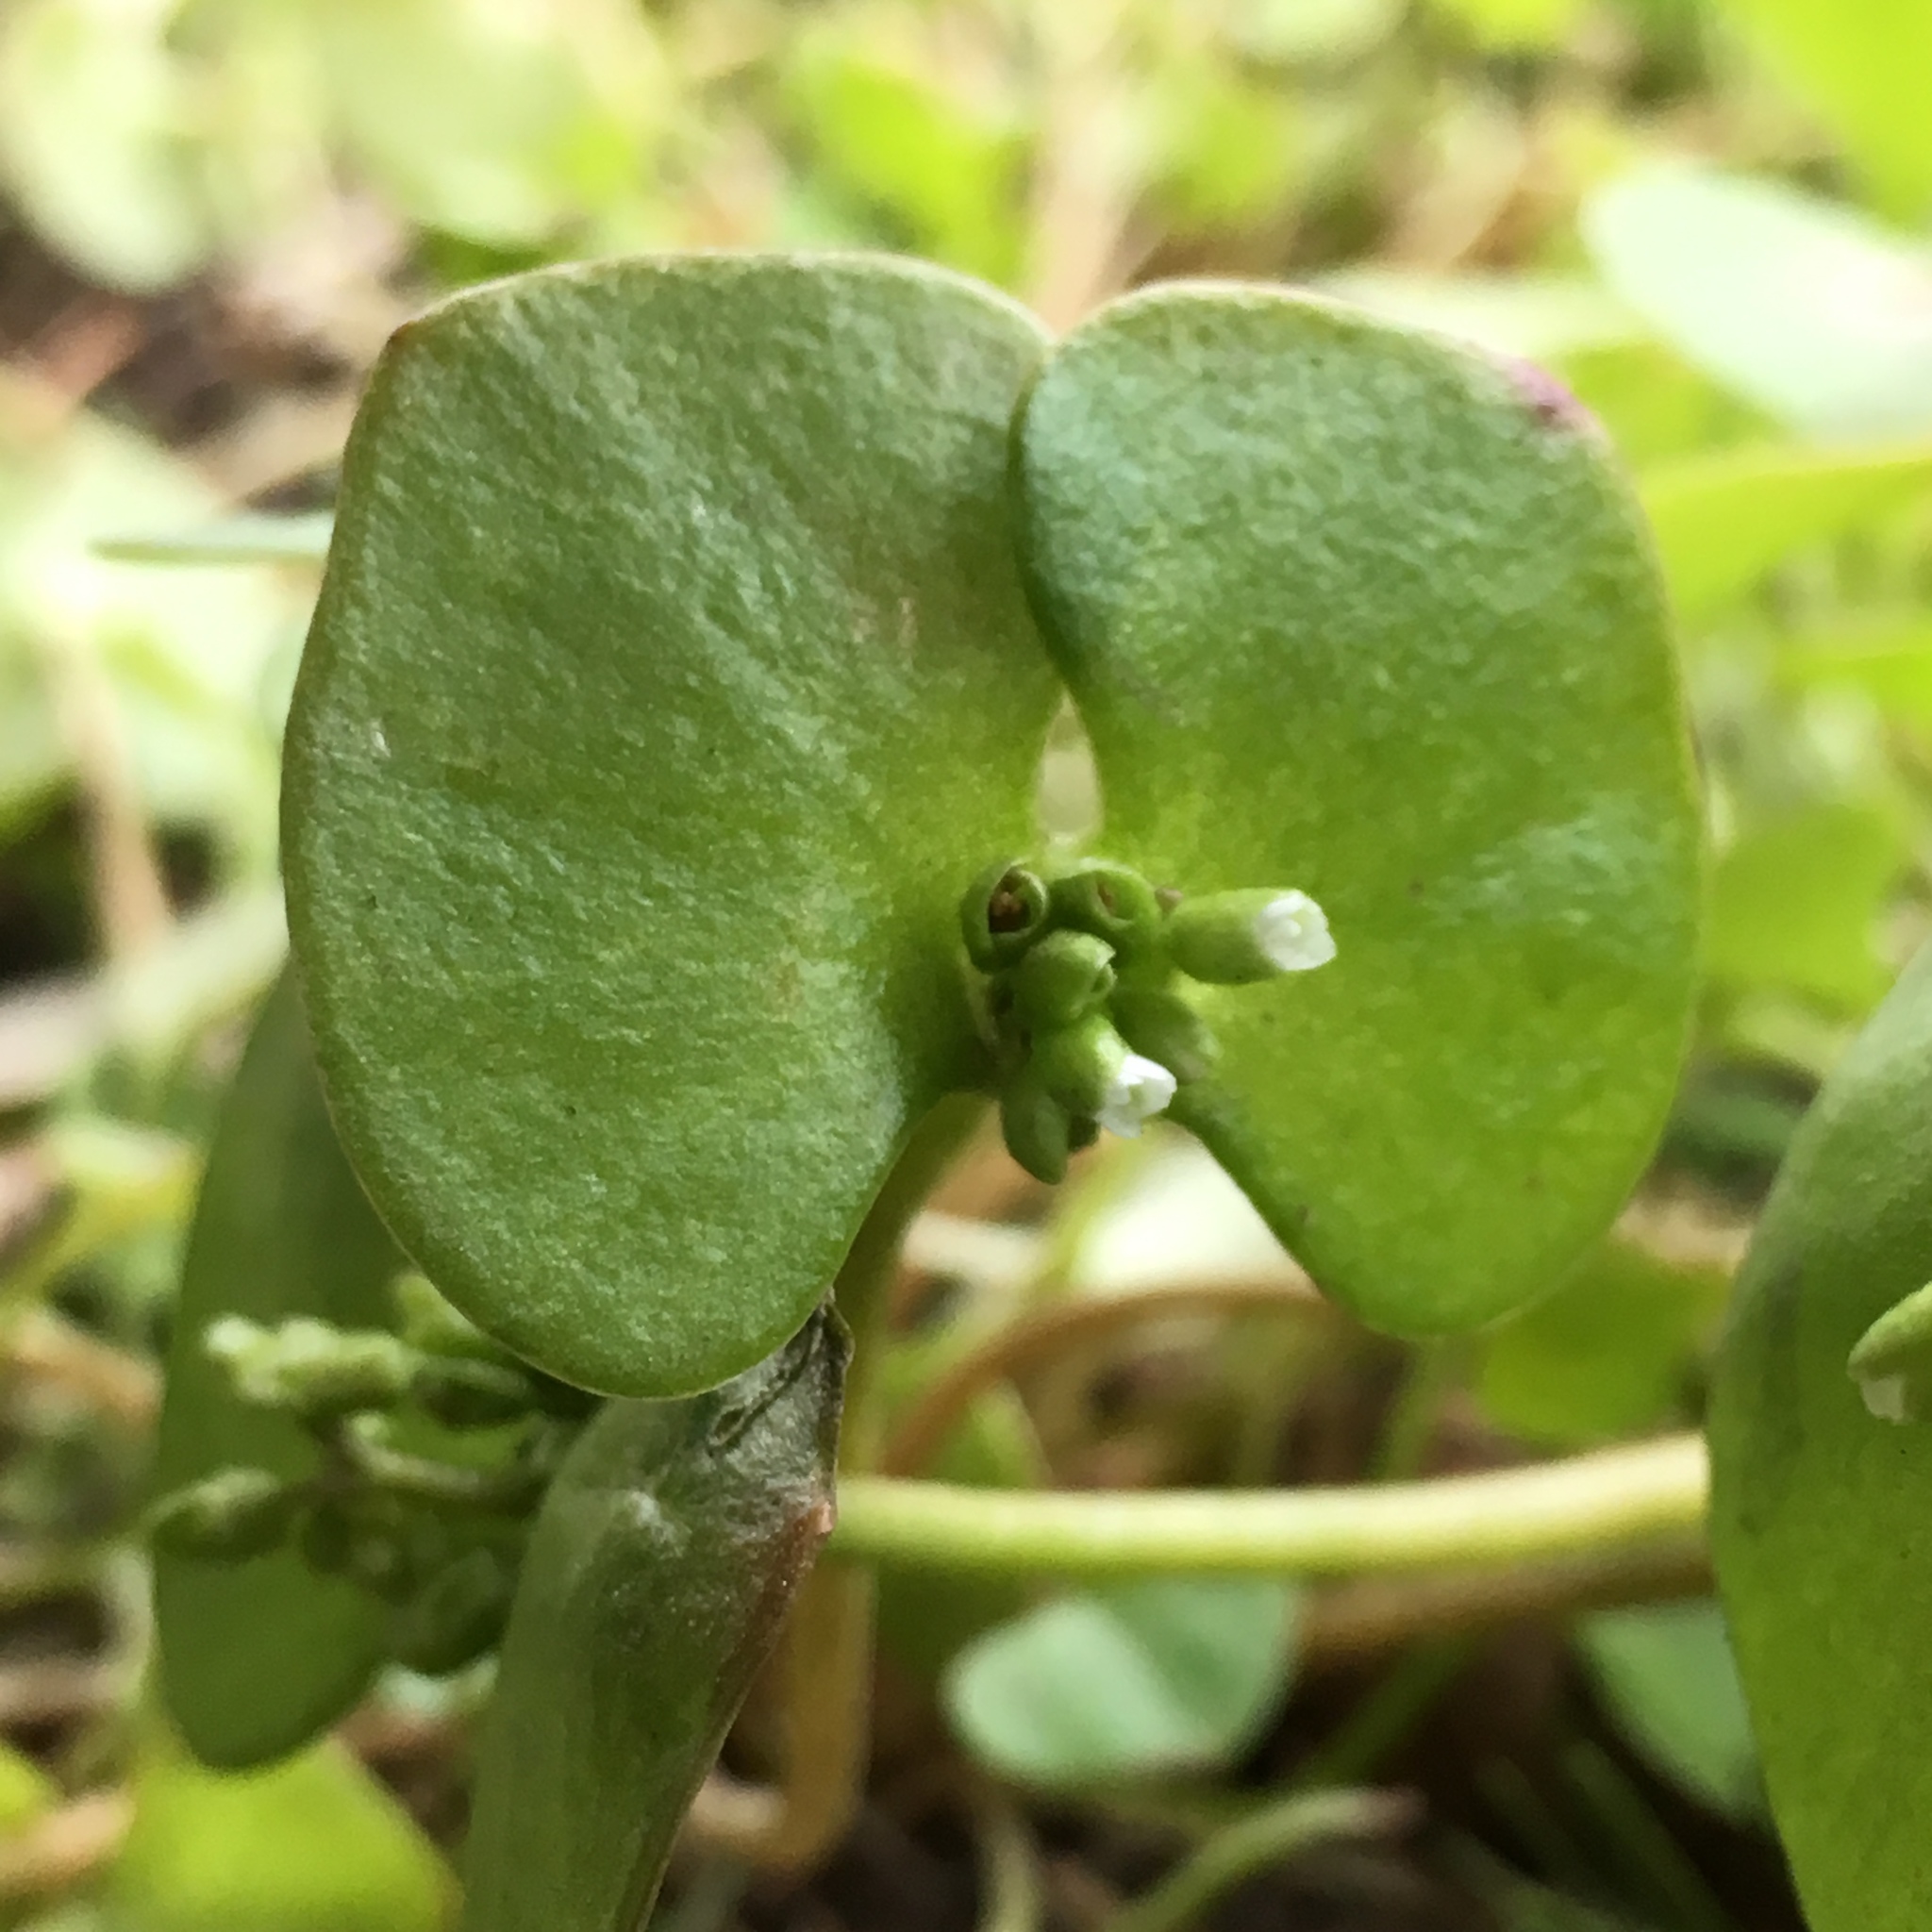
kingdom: Plantae
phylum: Tracheophyta
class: Magnoliopsida
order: Caryophyllales
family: Montiaceae
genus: Claytonia
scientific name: Claytonia perfoliata
